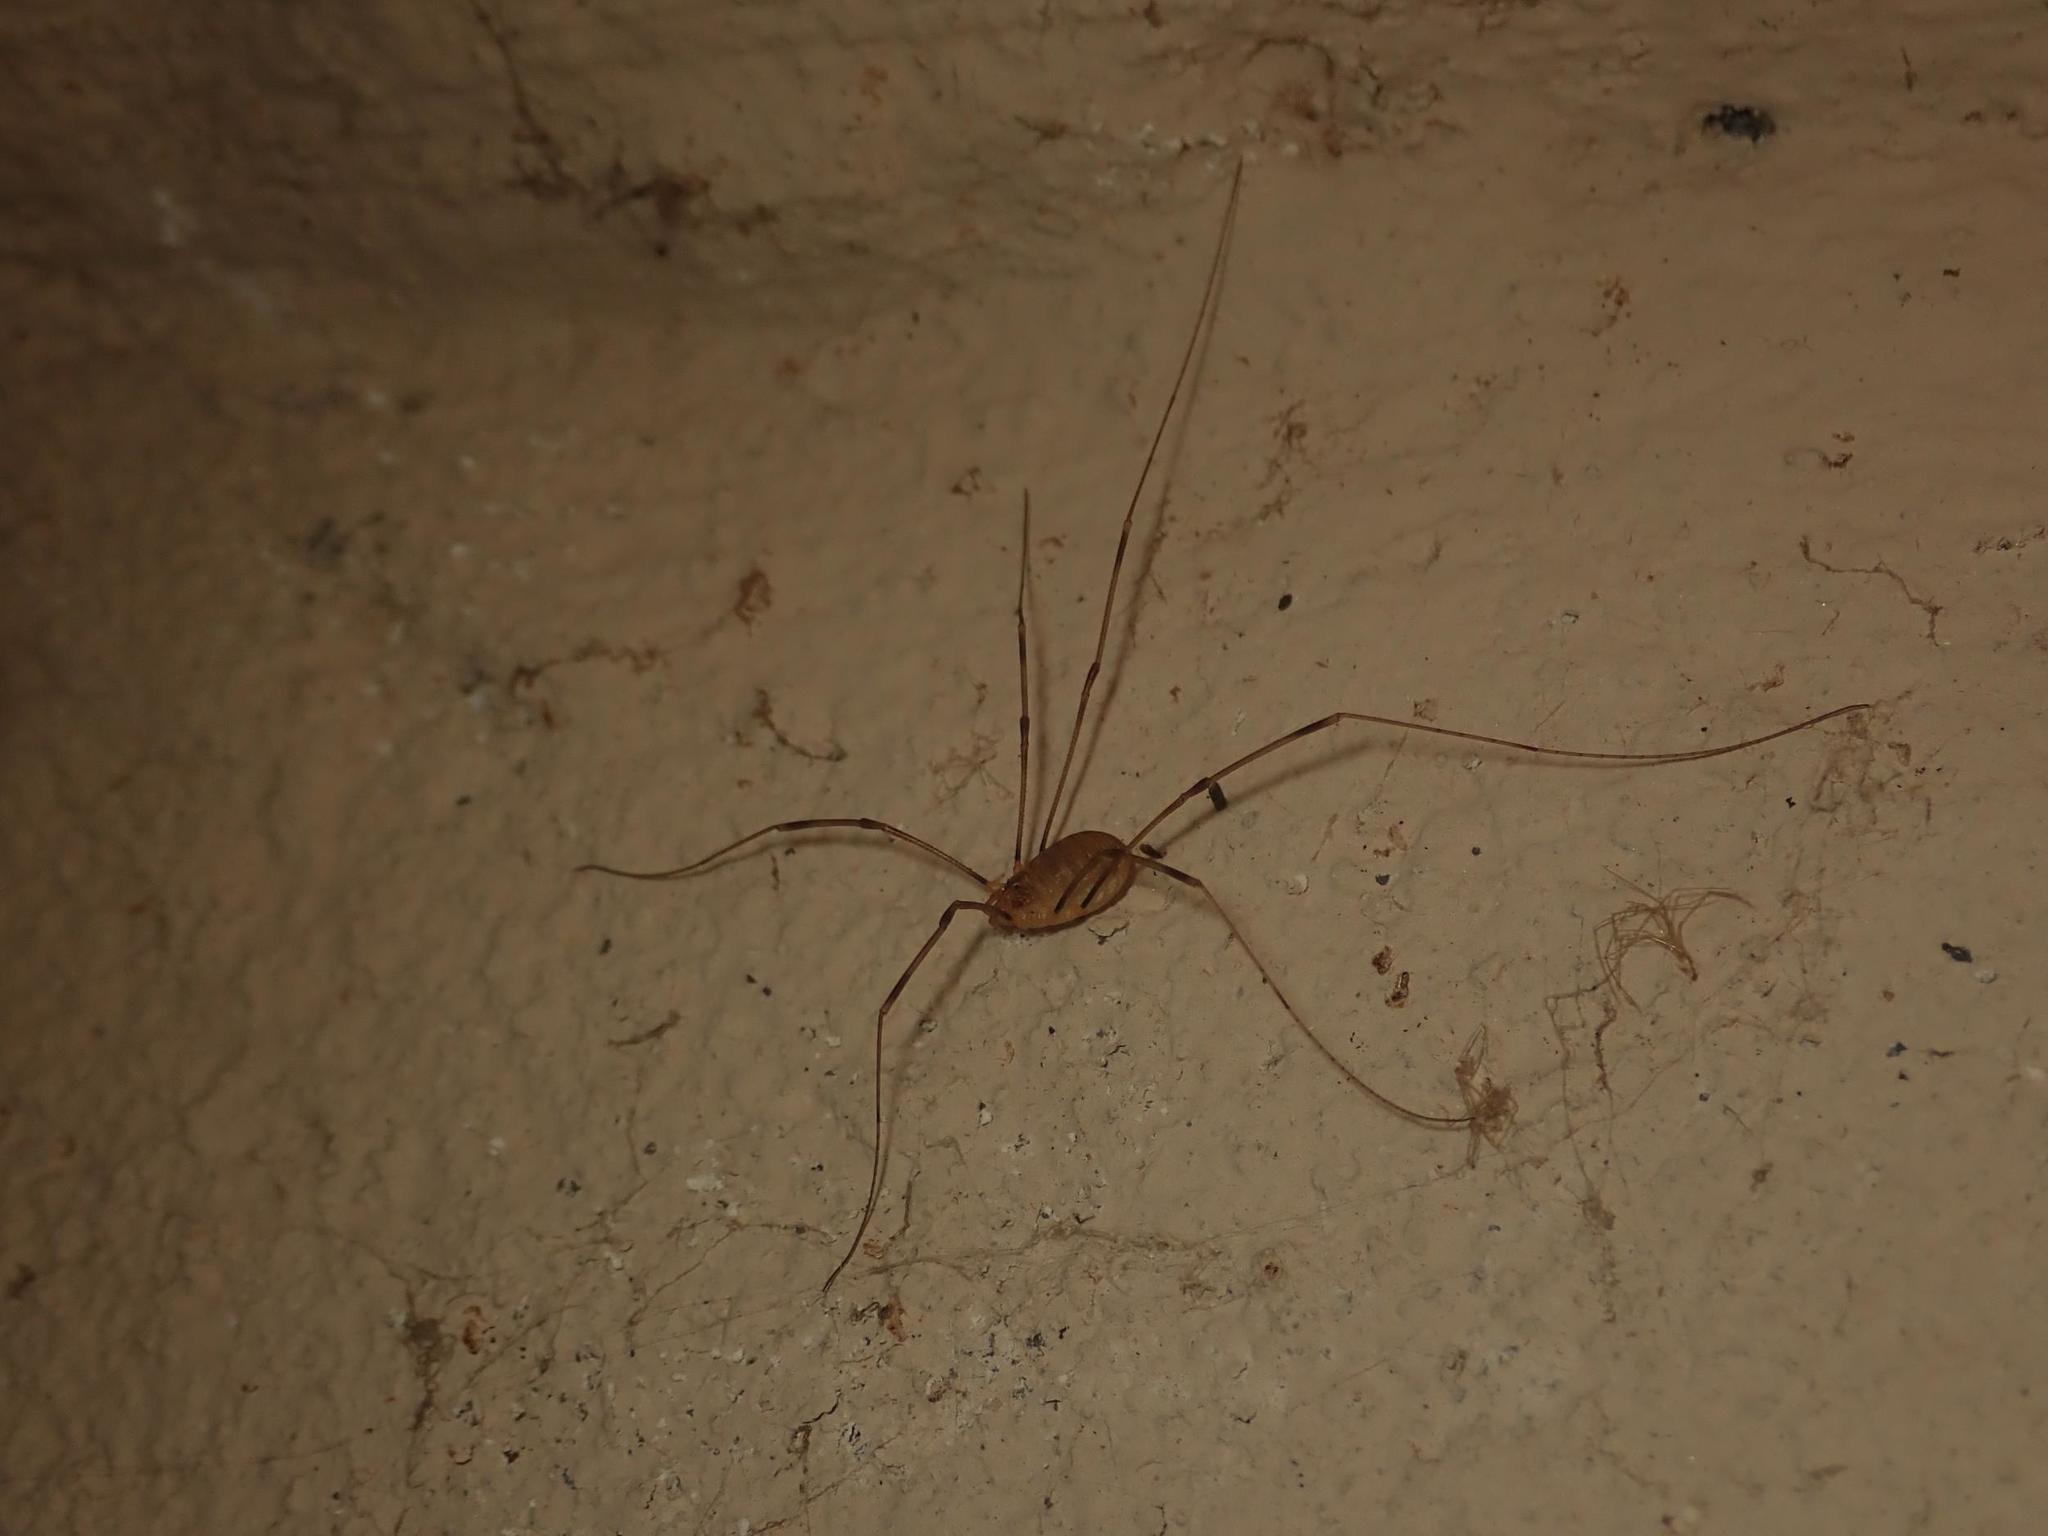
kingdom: Animalia
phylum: Arthropoda
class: Arachnida
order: Opiliones
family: Phalangiidae
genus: Opilio
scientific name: Opilio canestrinii
